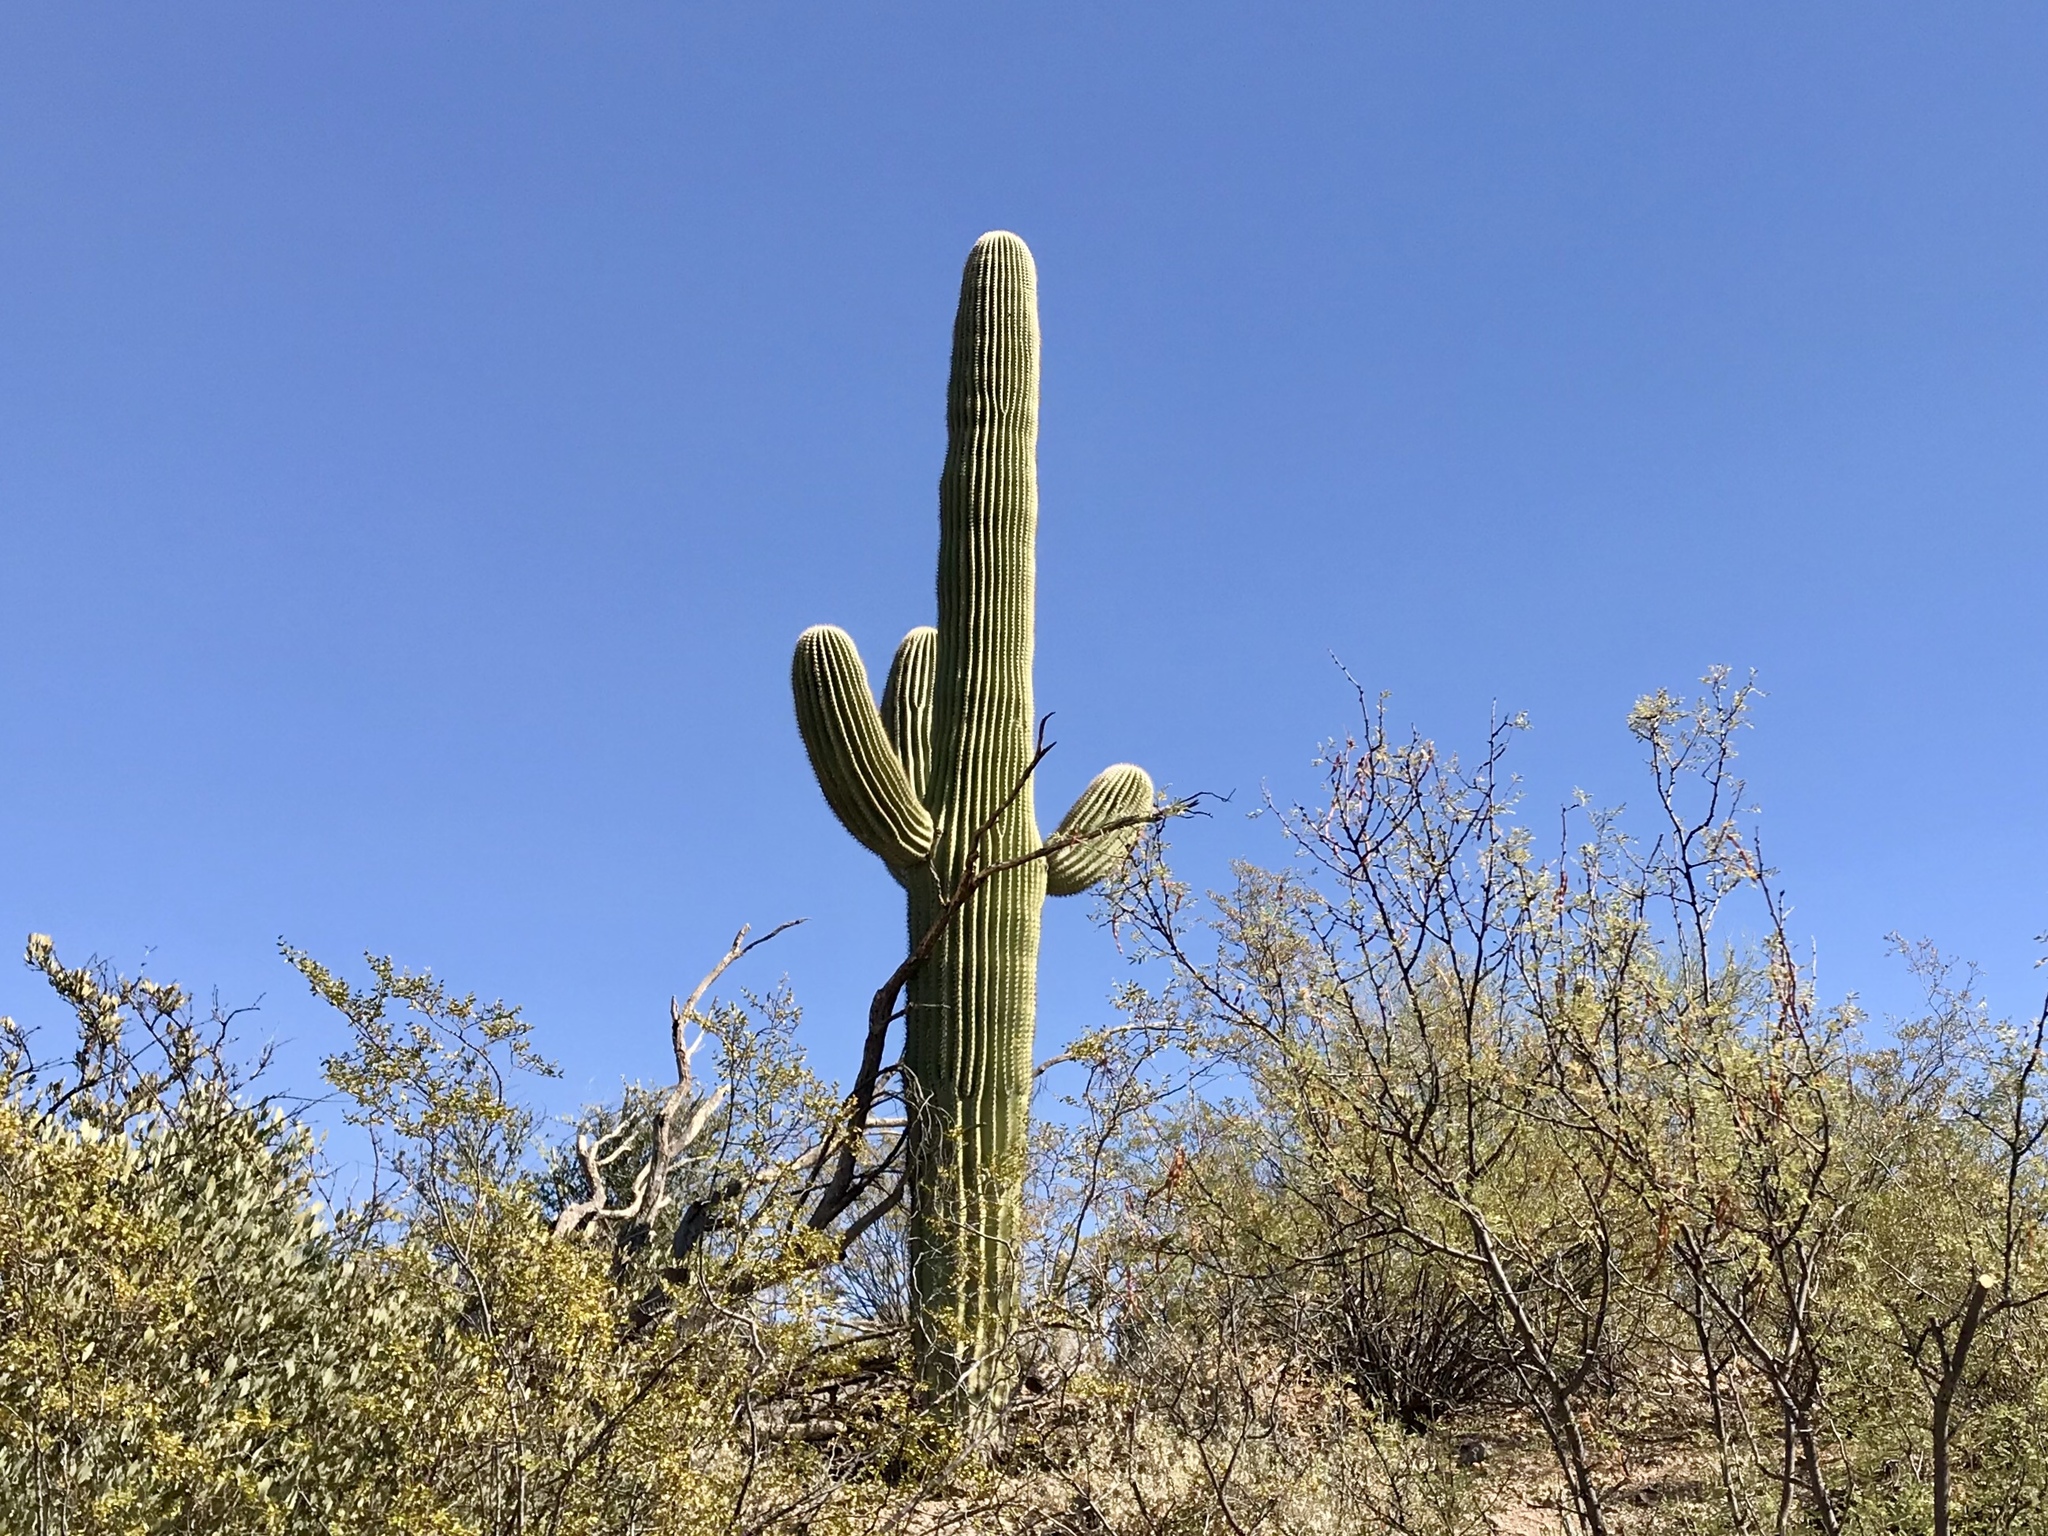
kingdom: Plantae
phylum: Tracheophyta
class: Magnoliopsida
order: Caryophyllales
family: Cactaceae
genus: Carnegiea
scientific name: Carnegiea gigantea
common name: Saguaro
